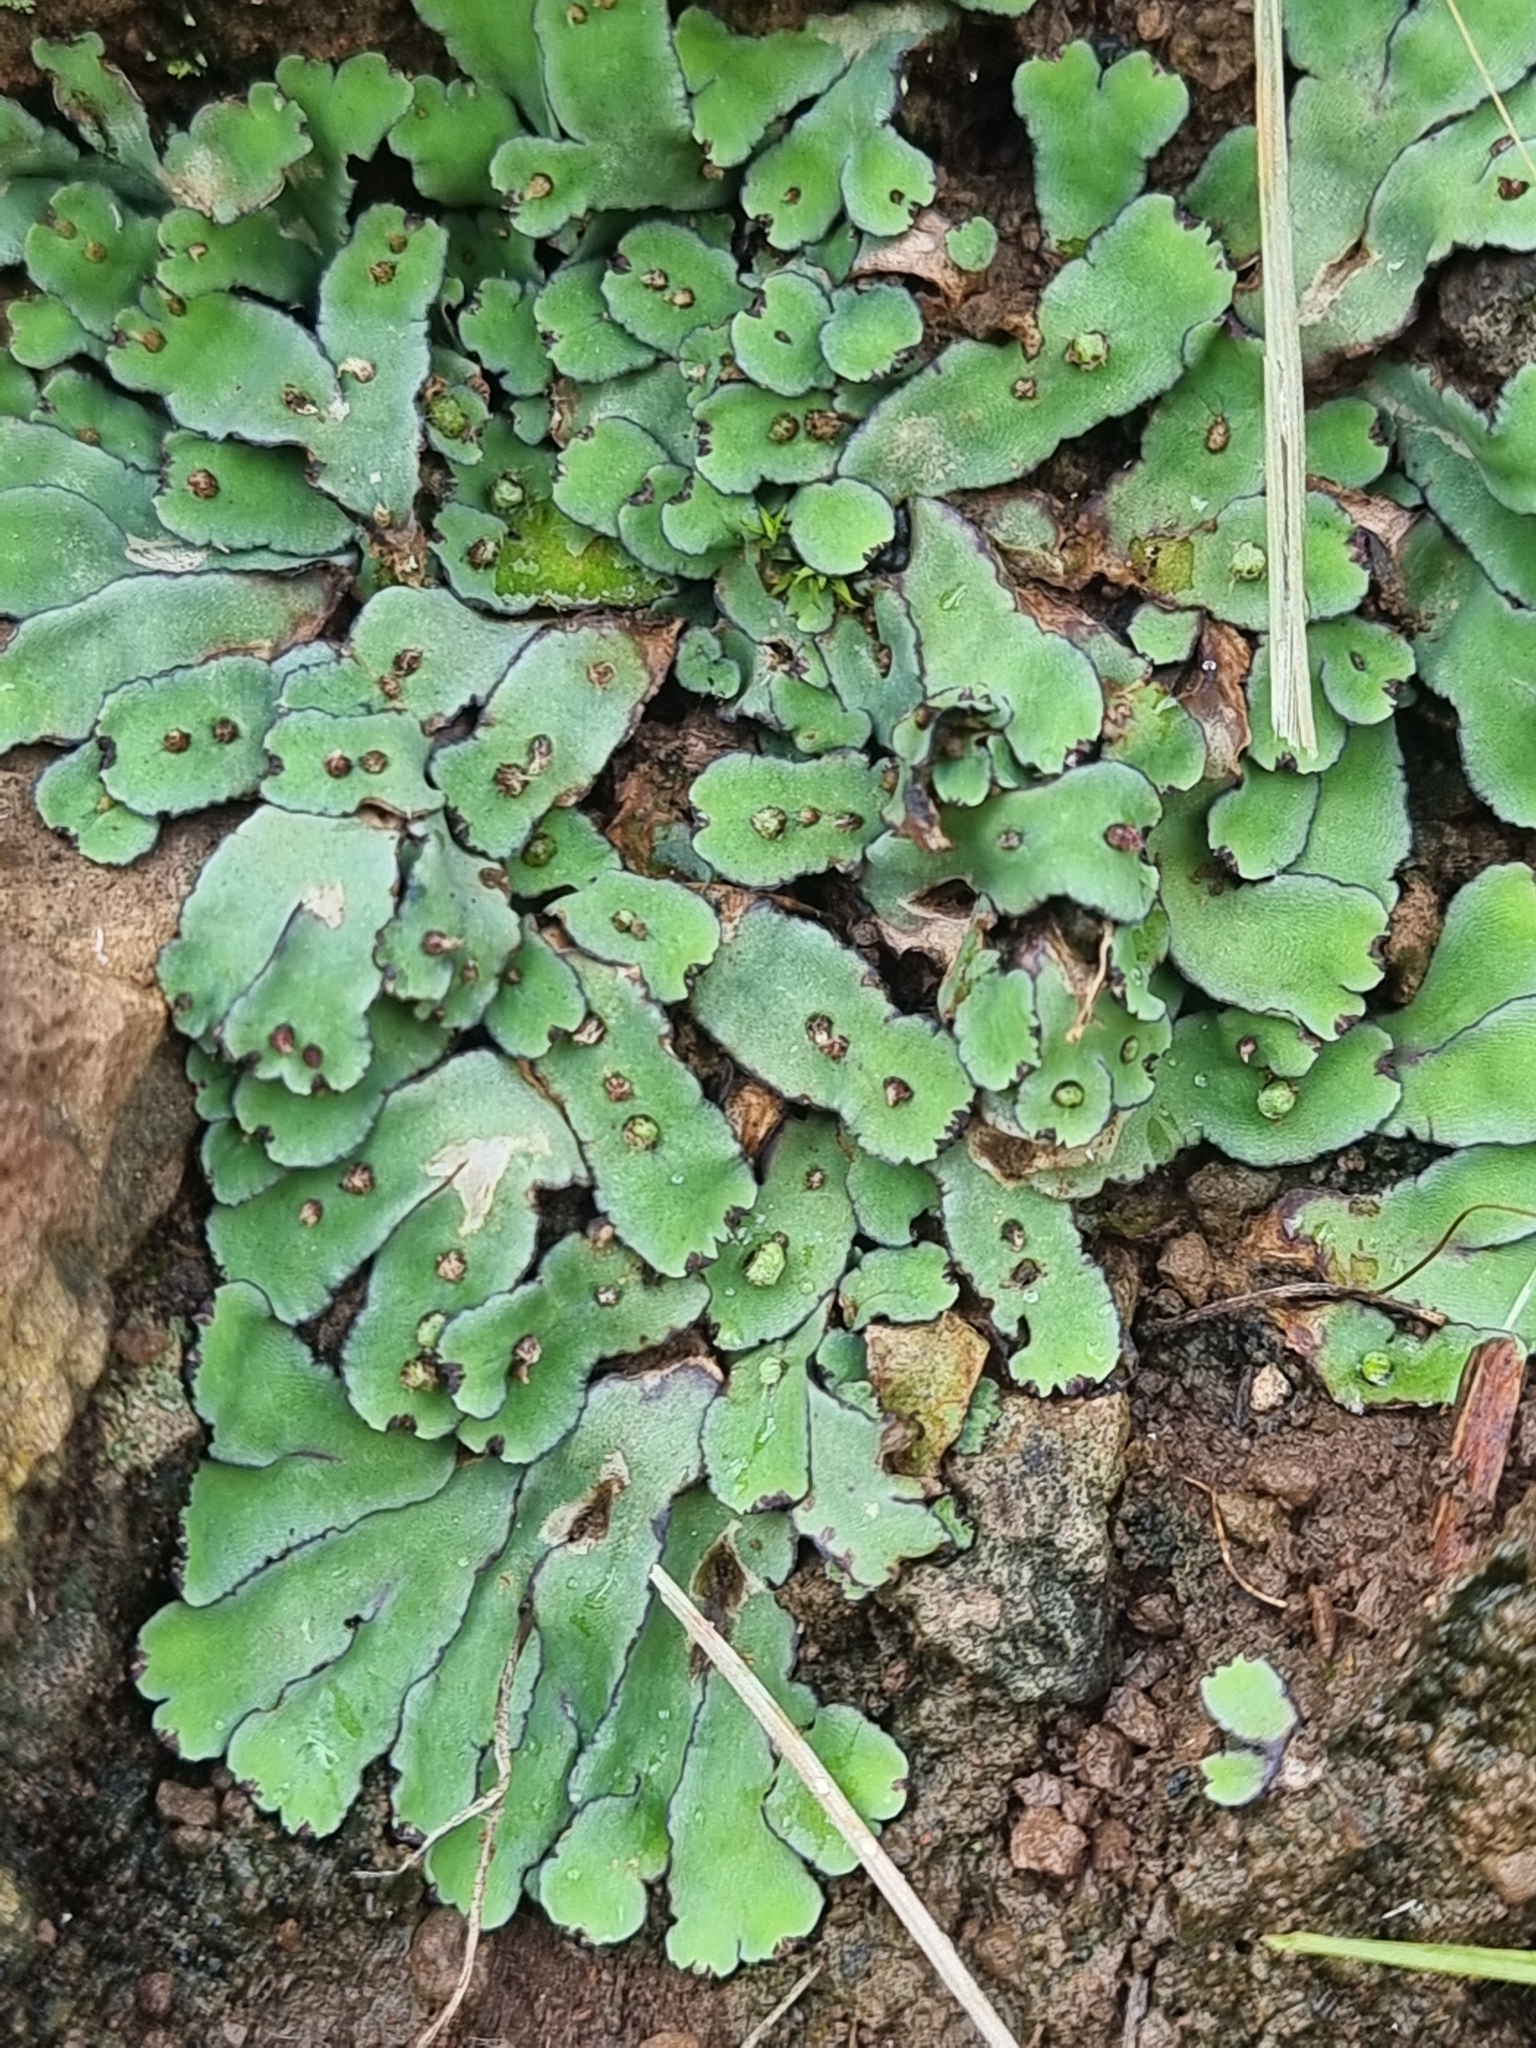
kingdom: Plantae
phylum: Marchantiophyta
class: Marchantiopsida
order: Marchantiales
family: Aytoniaceae
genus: Plagiochasma
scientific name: Plagiochasma rupestre
